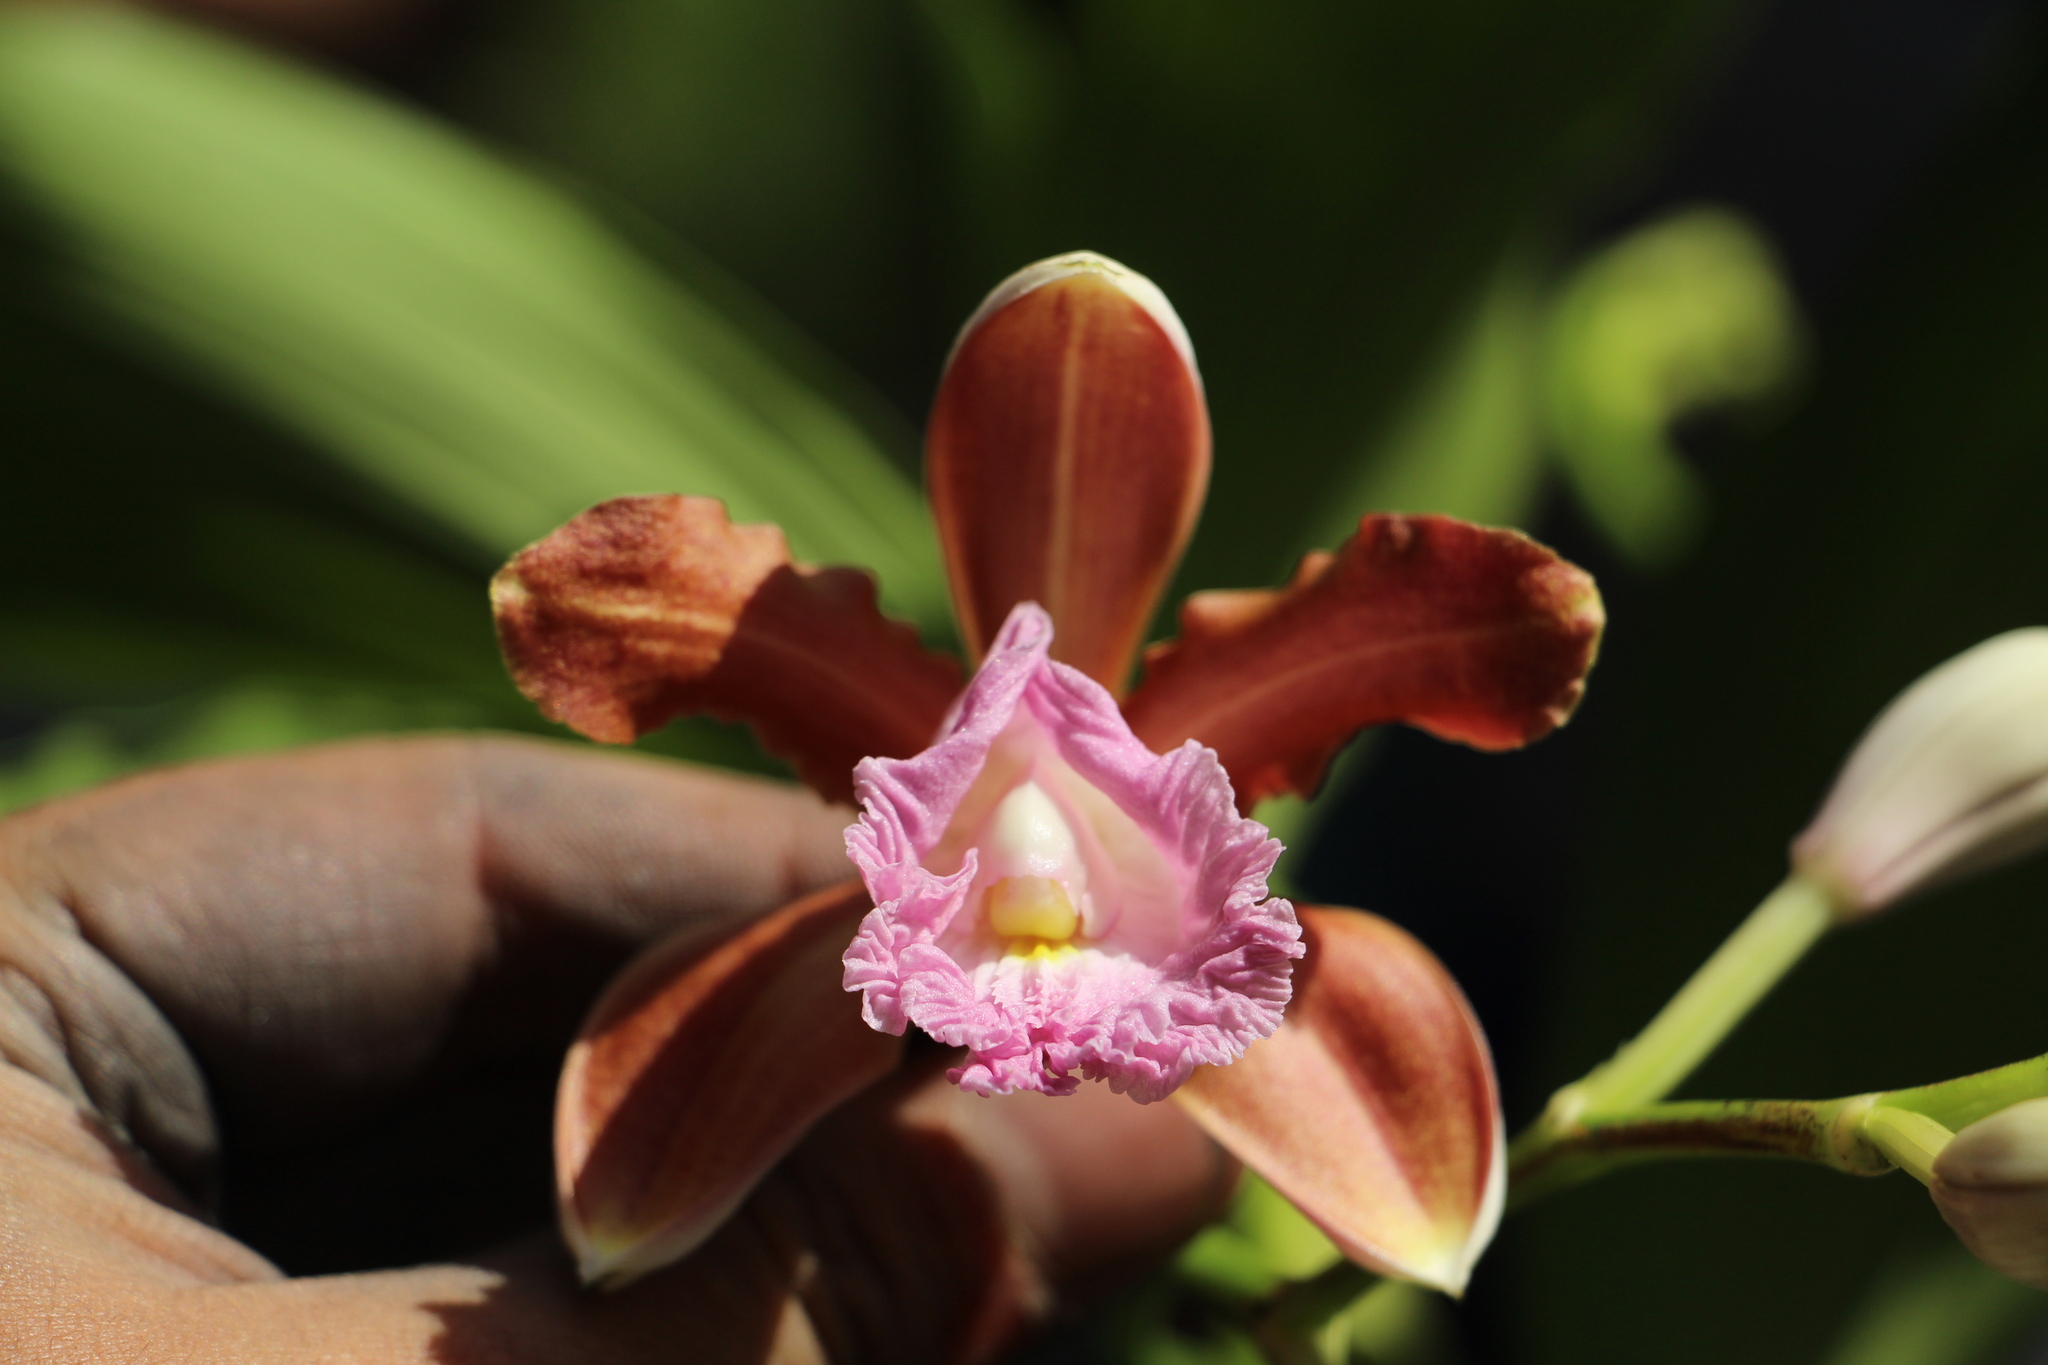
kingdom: Plantae
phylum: Tracheophyta
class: Liliopsida
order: Asparagales
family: Orchidaceae
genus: Sobralia
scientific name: Sobralia odorata
